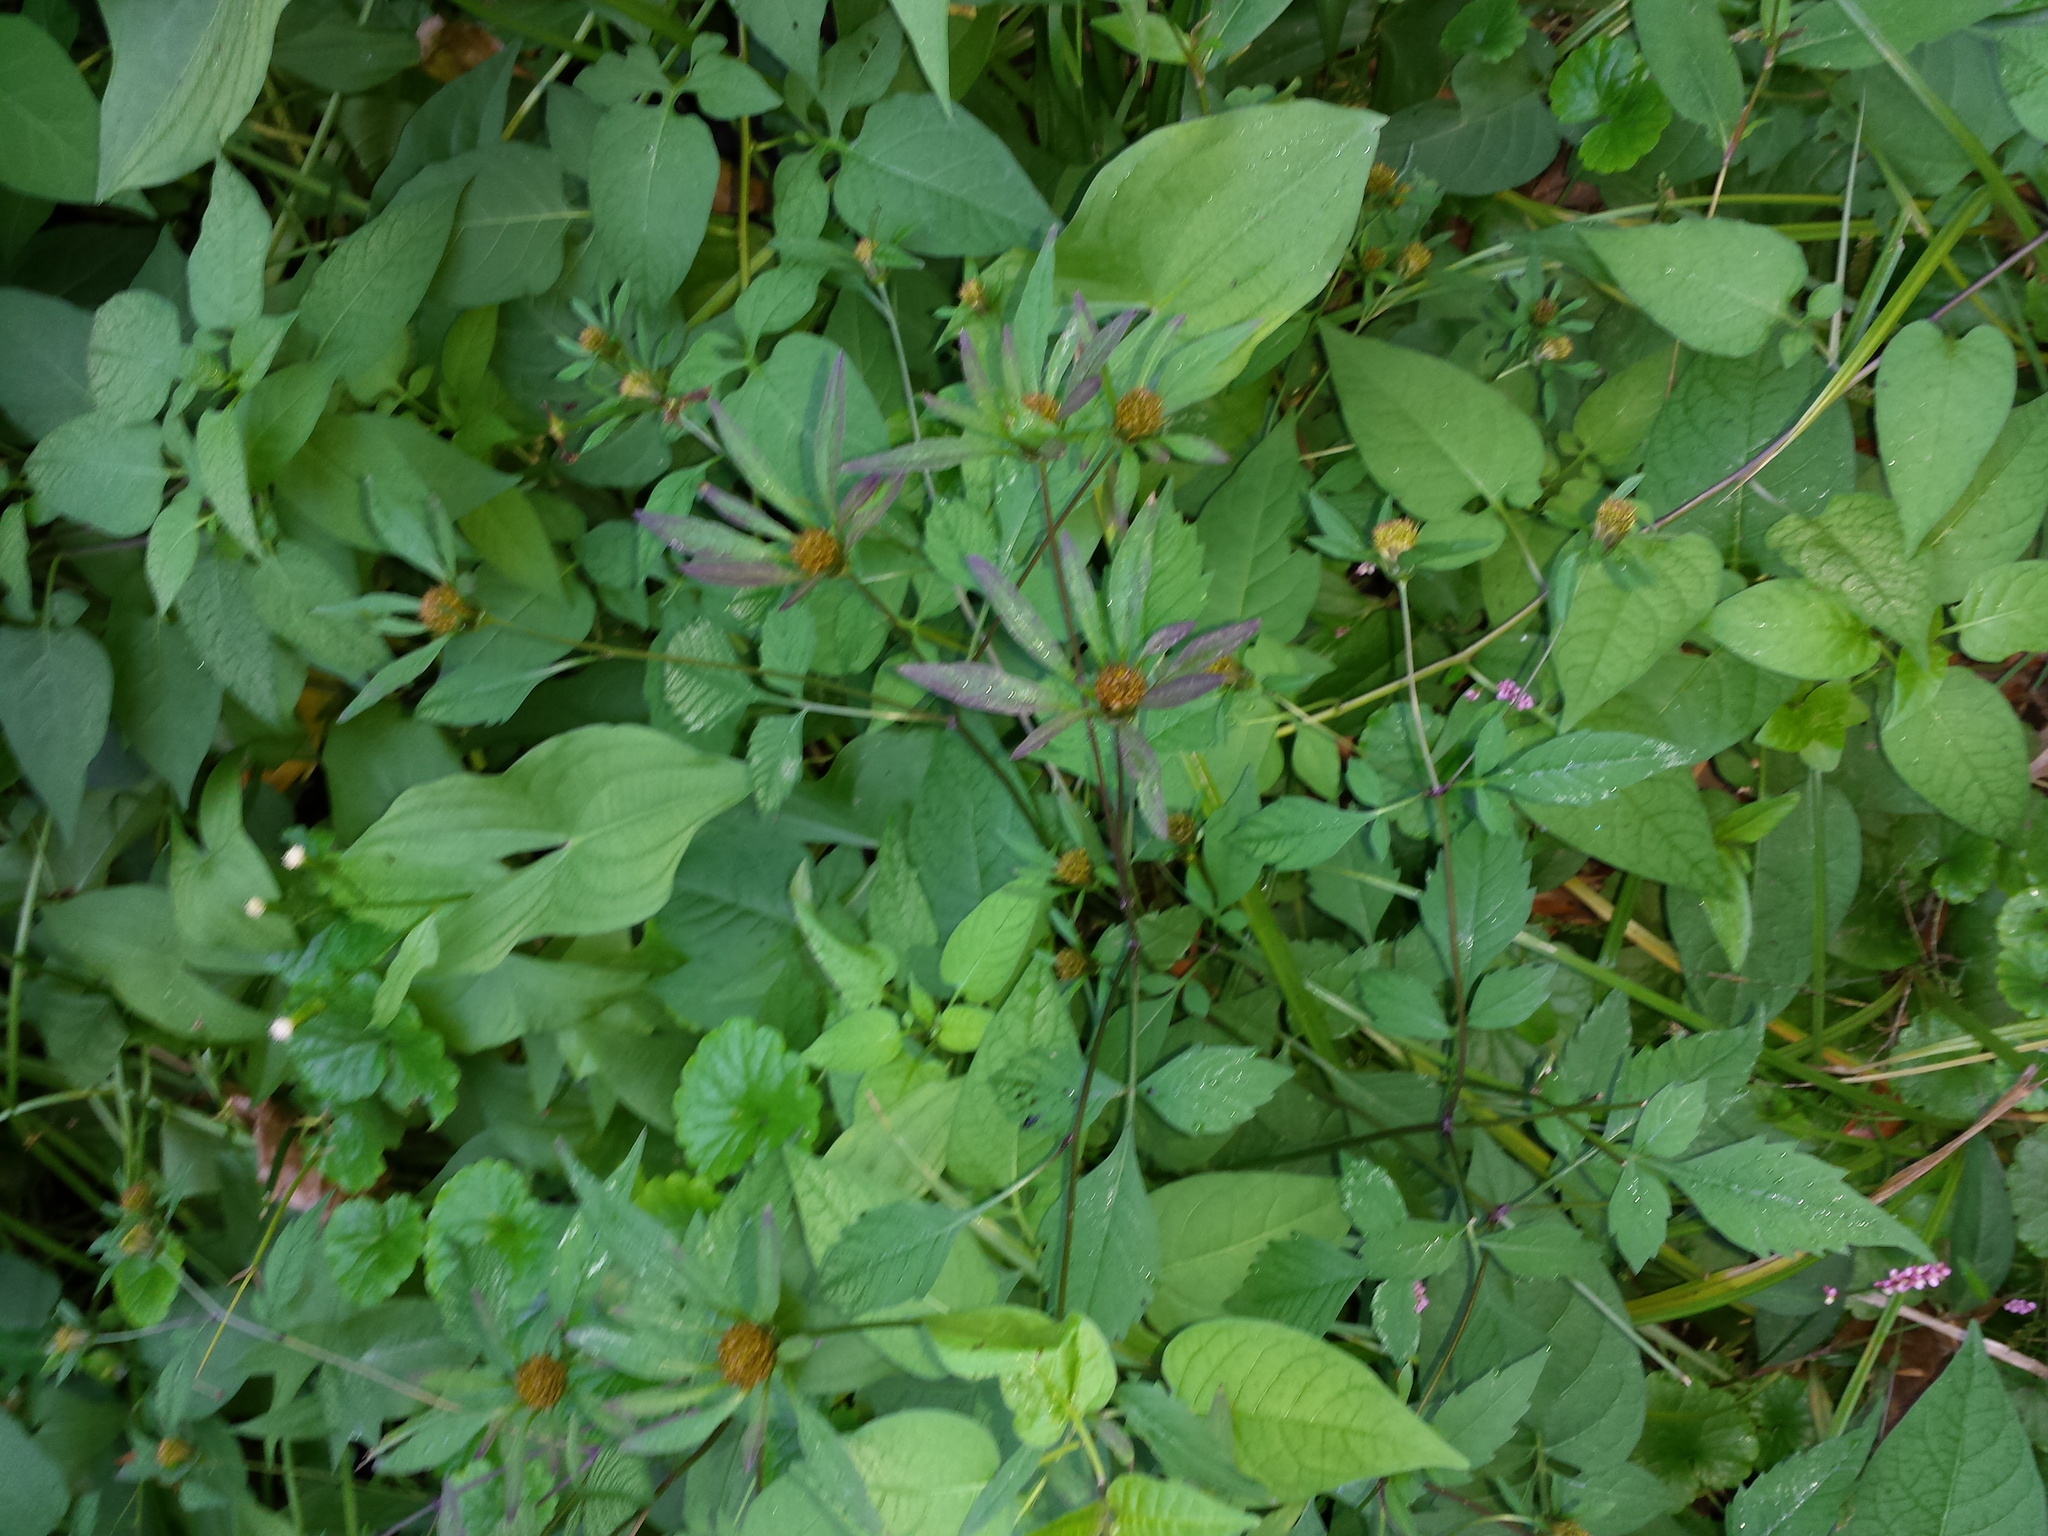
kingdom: Plantae
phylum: Tracheophyta
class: Magnoliopsida
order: Asterales
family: Asteraceae
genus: Bidens
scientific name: Bidens frondosa
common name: Beggarticks
